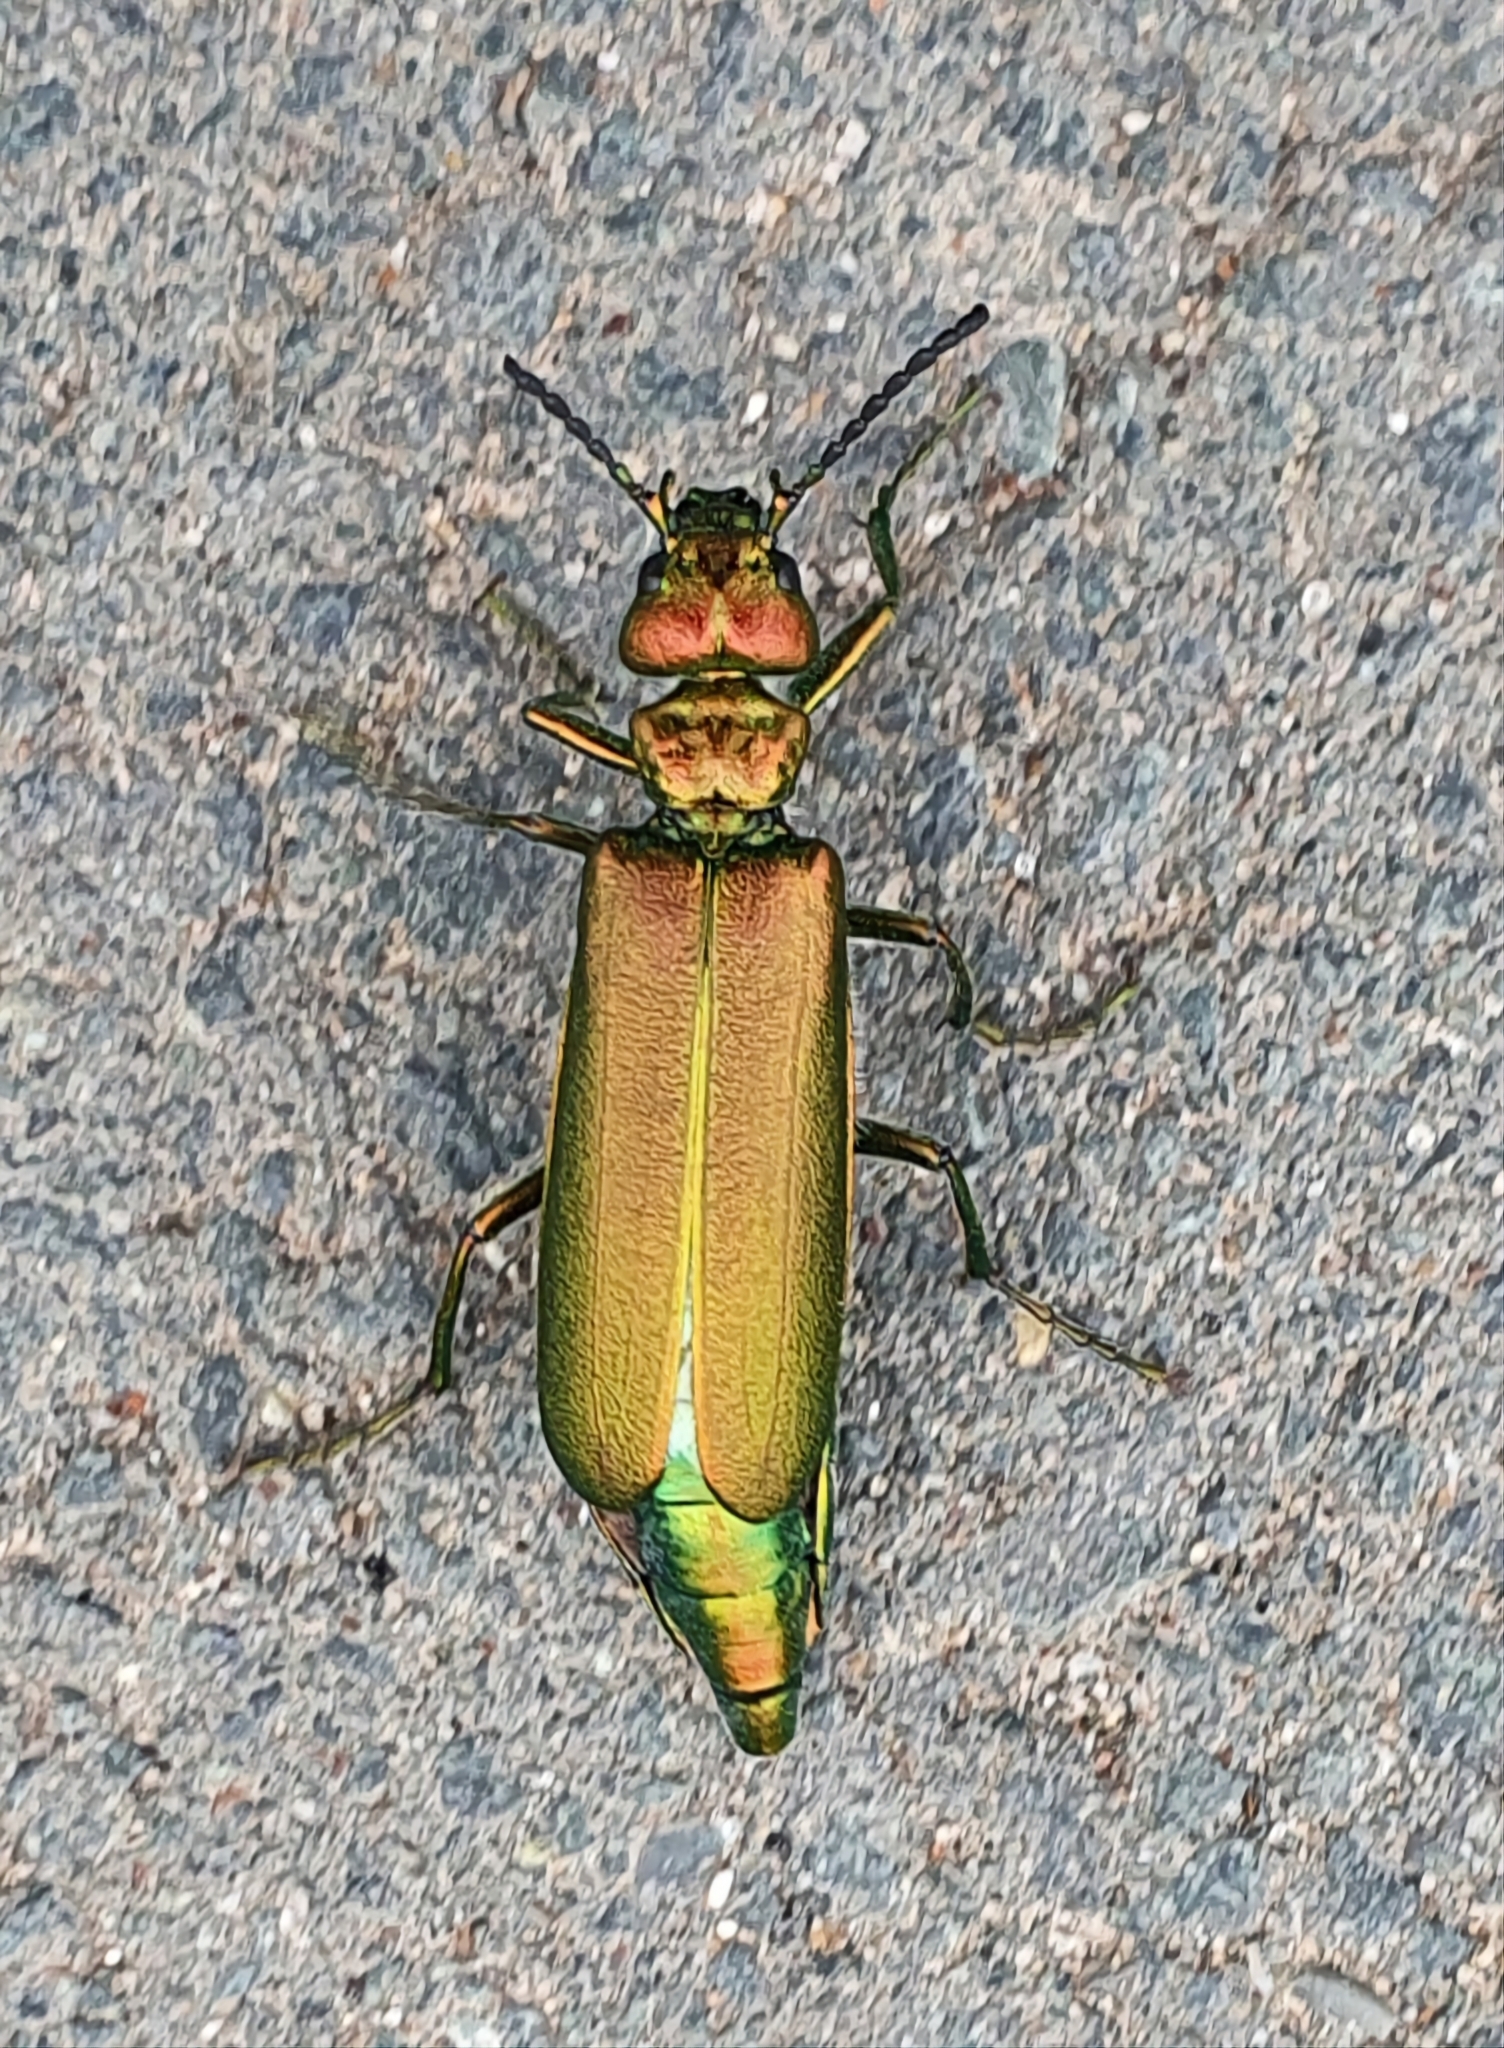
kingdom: Animalia
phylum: Arthropoda
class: Insecta
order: Coleoptera
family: Meloidae
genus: Lytta
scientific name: Lytta vesicatoria
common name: Spanish fly
